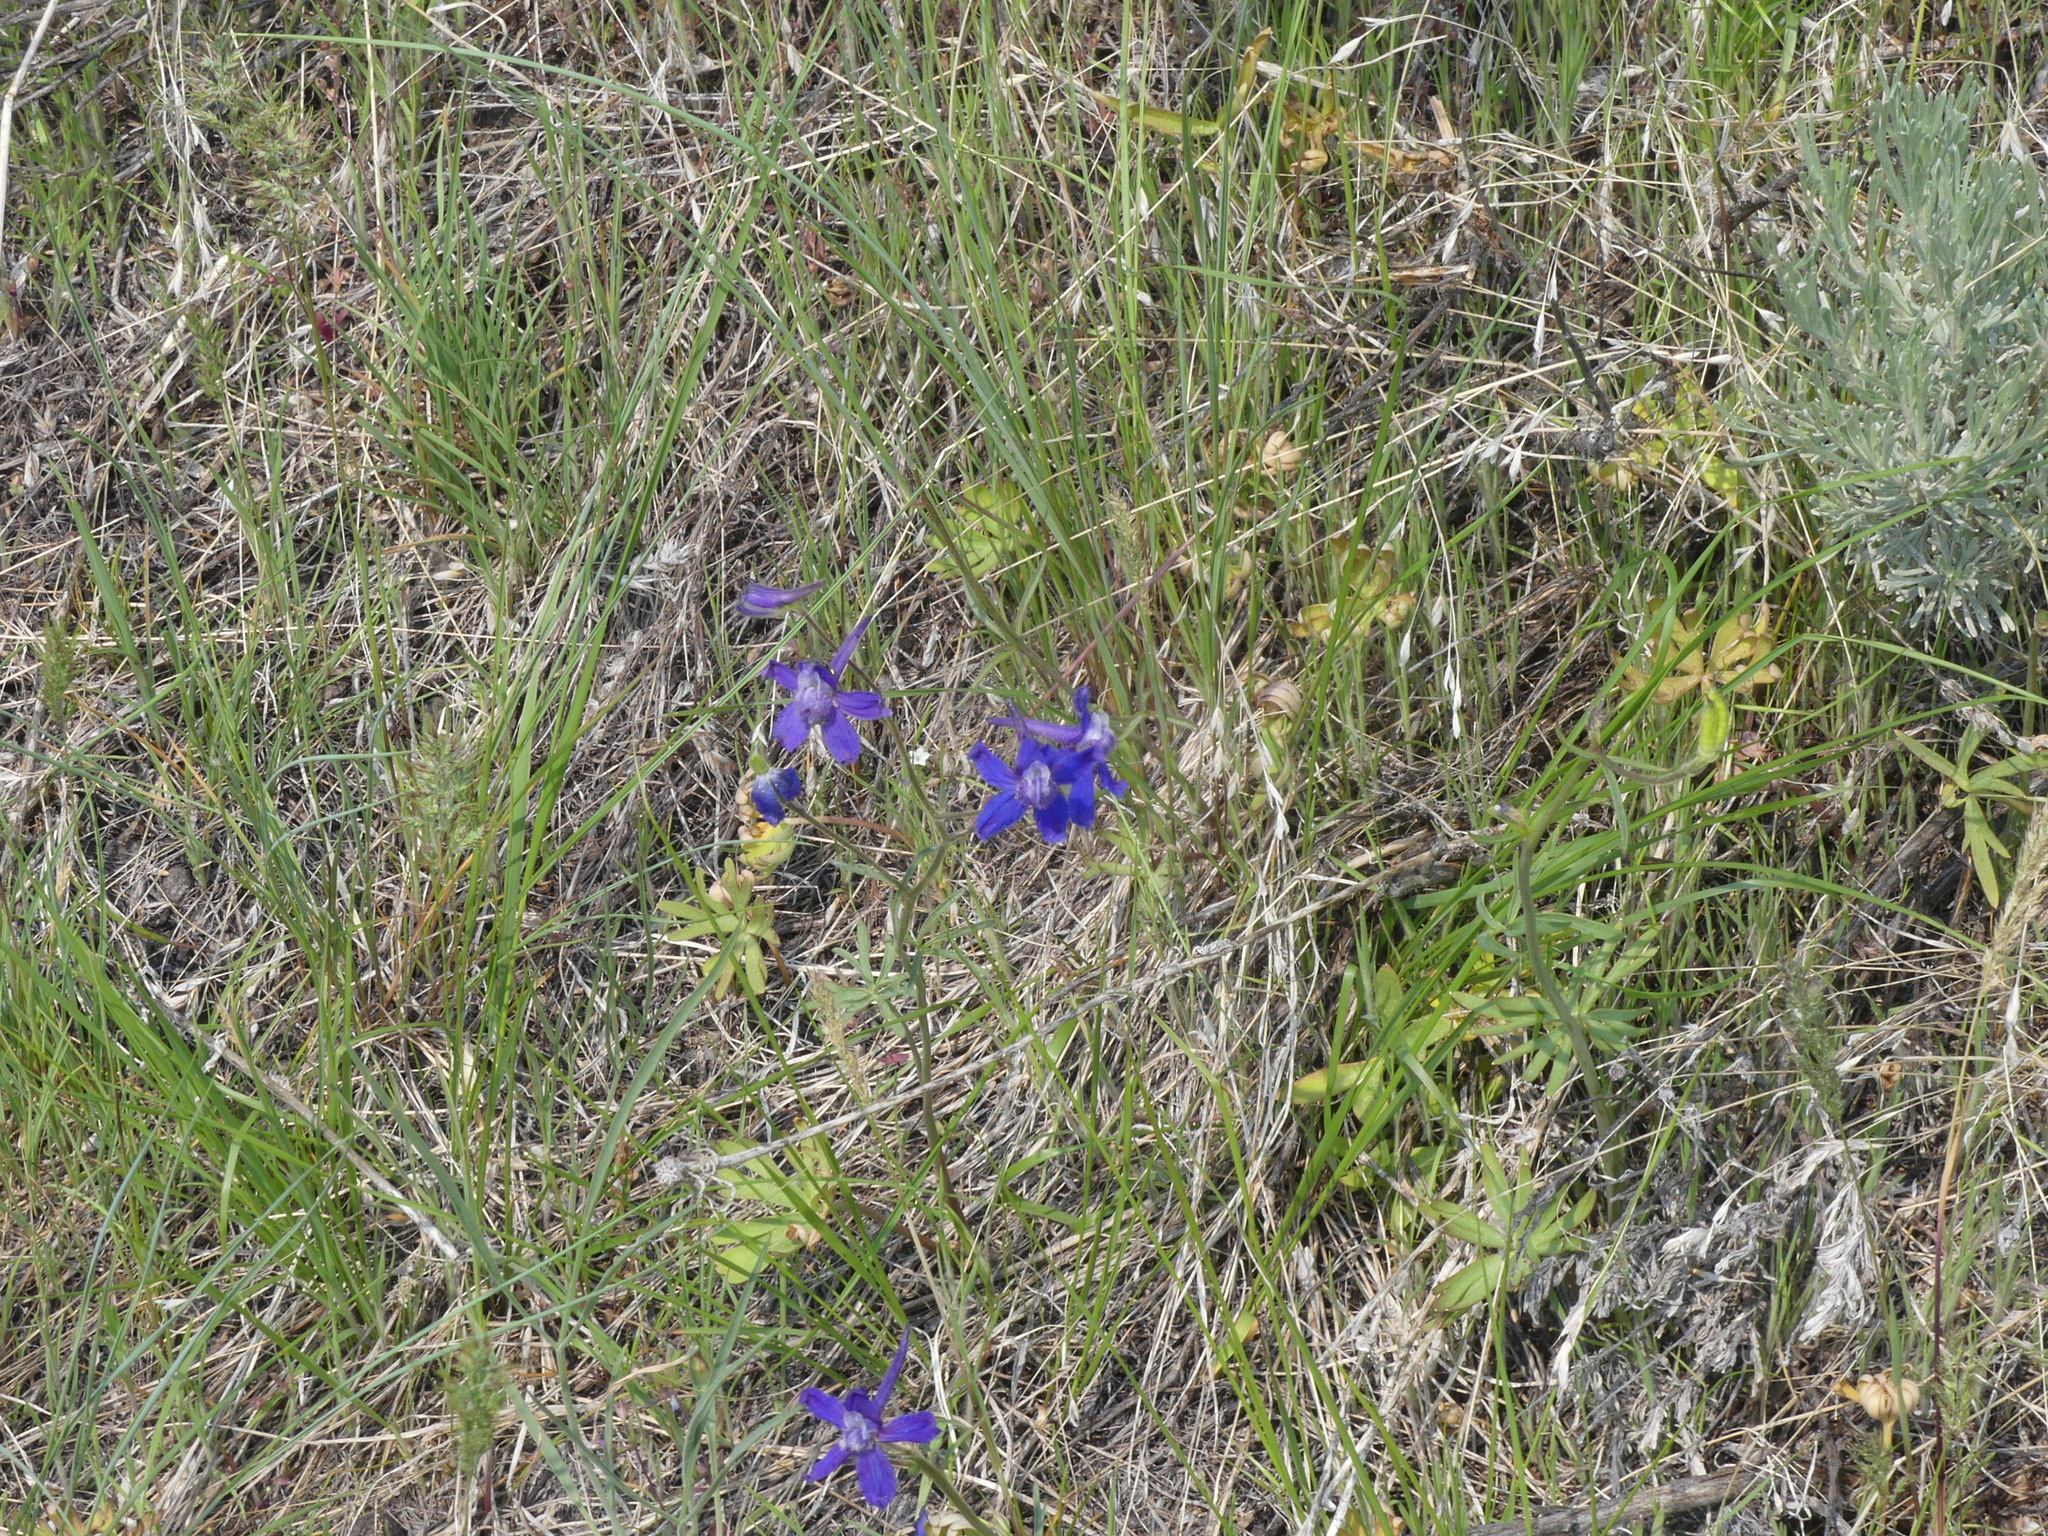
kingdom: Plantae
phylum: Tracheophyta
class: Magnoliopsida
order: Ranunculales
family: Ranunculaceae
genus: Delphinium
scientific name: Delphinium nuttallianum
